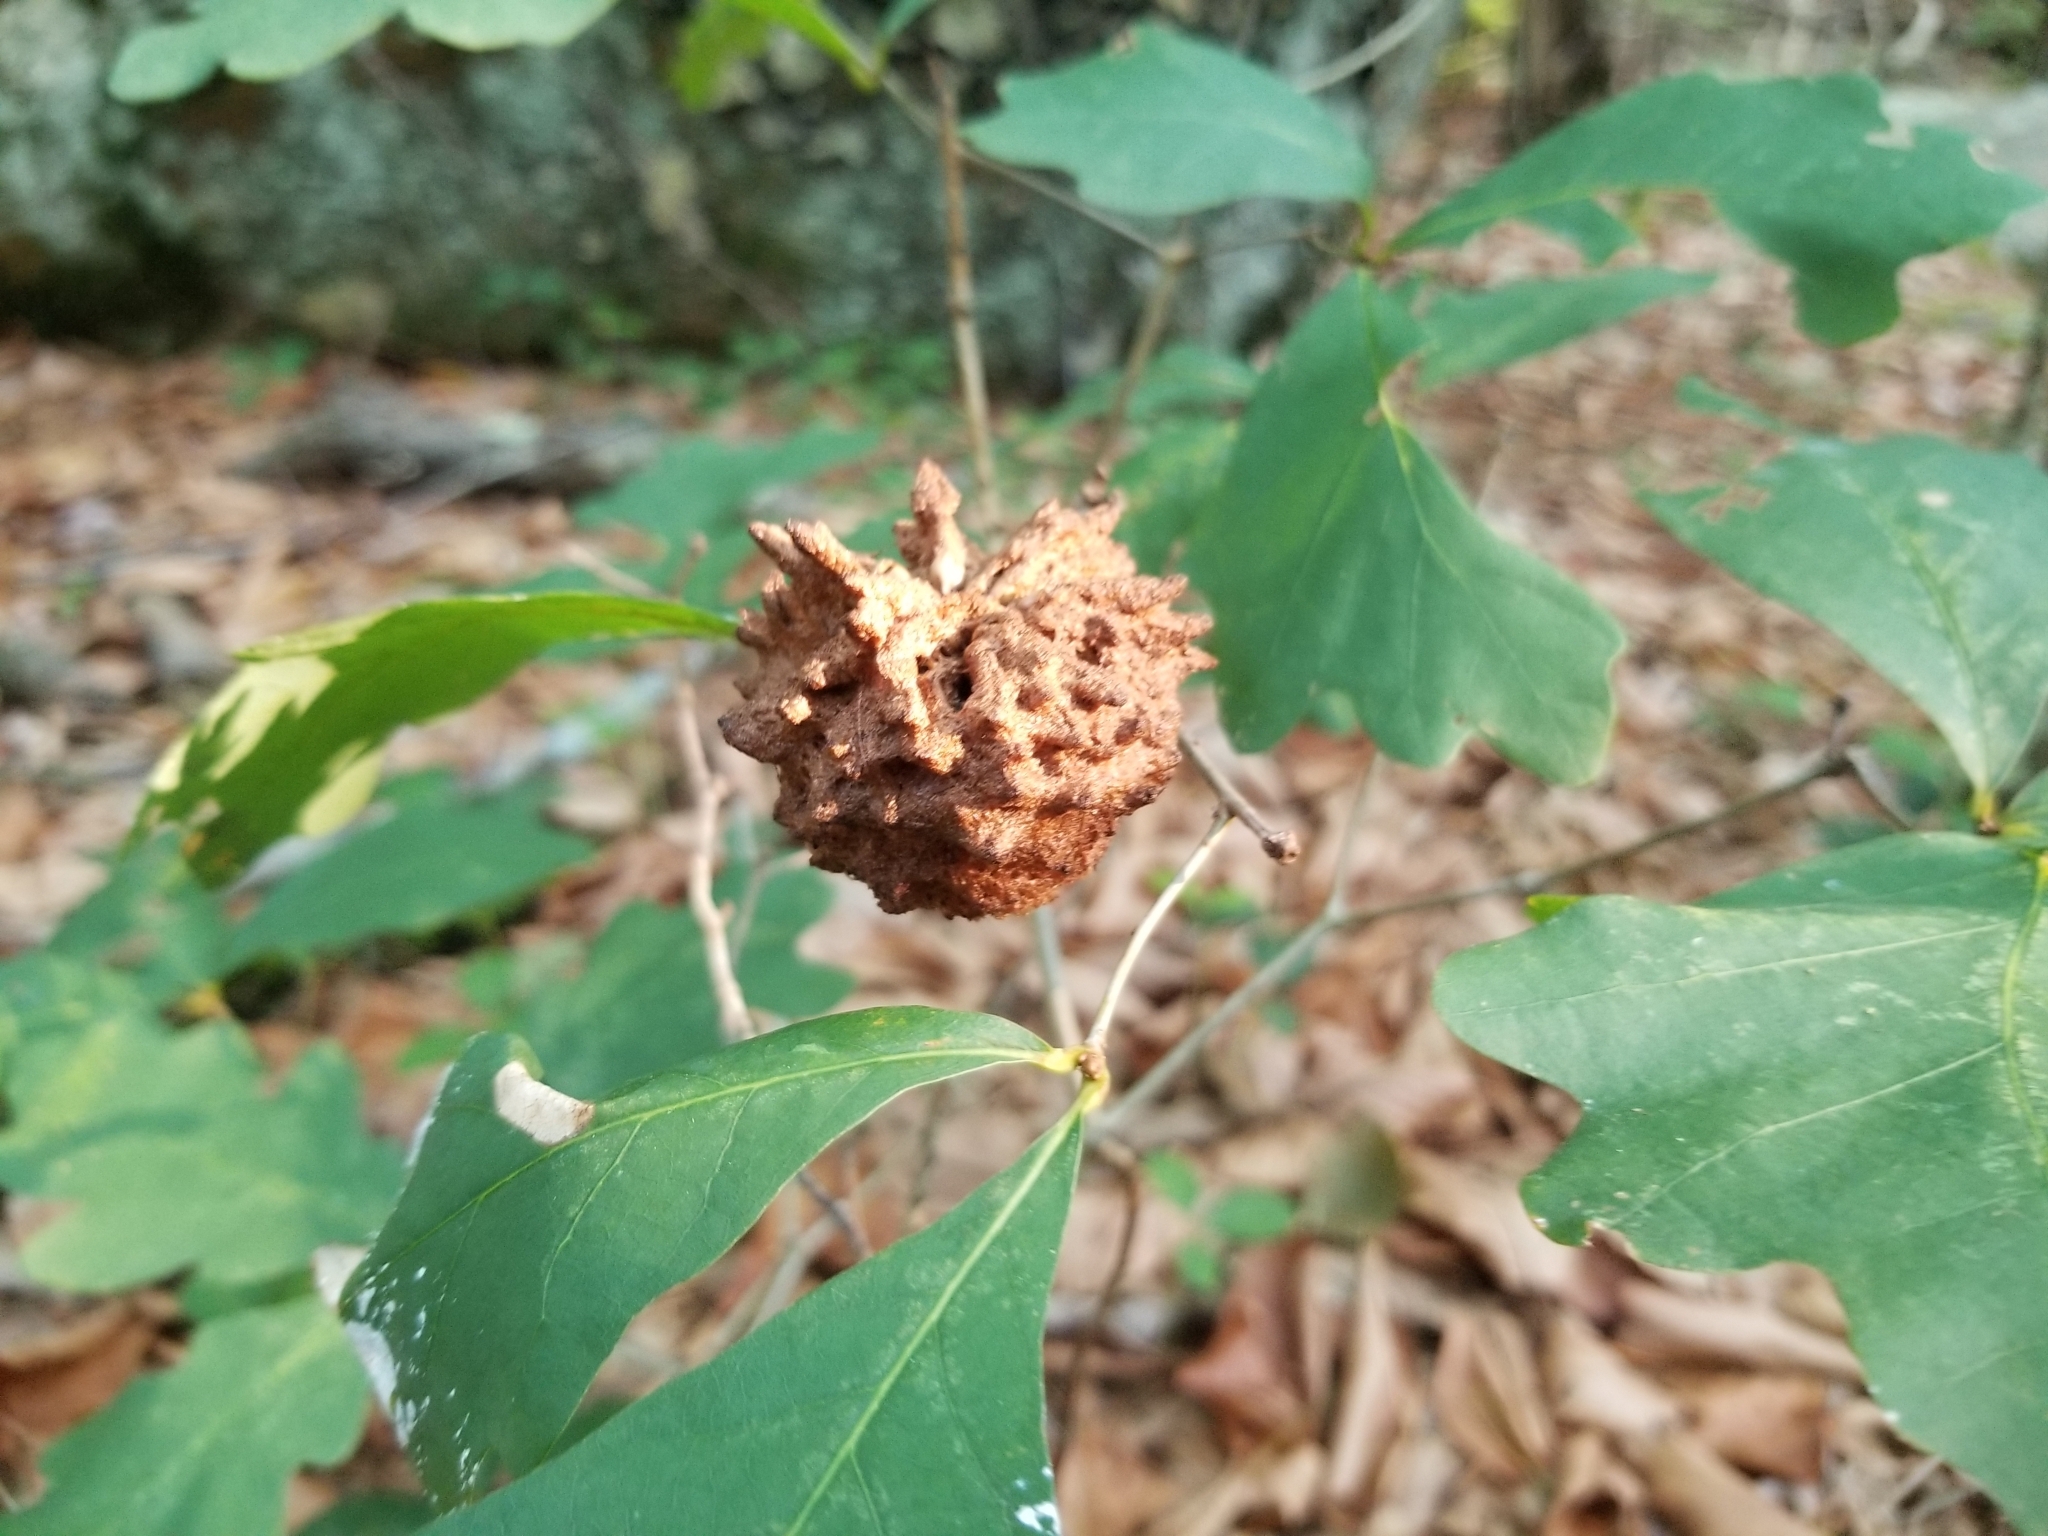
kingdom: Animalia
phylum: Arthropoda
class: Insecta
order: Hymenoptera
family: Cynipidae
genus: Callirhytis
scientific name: Callirhytis
